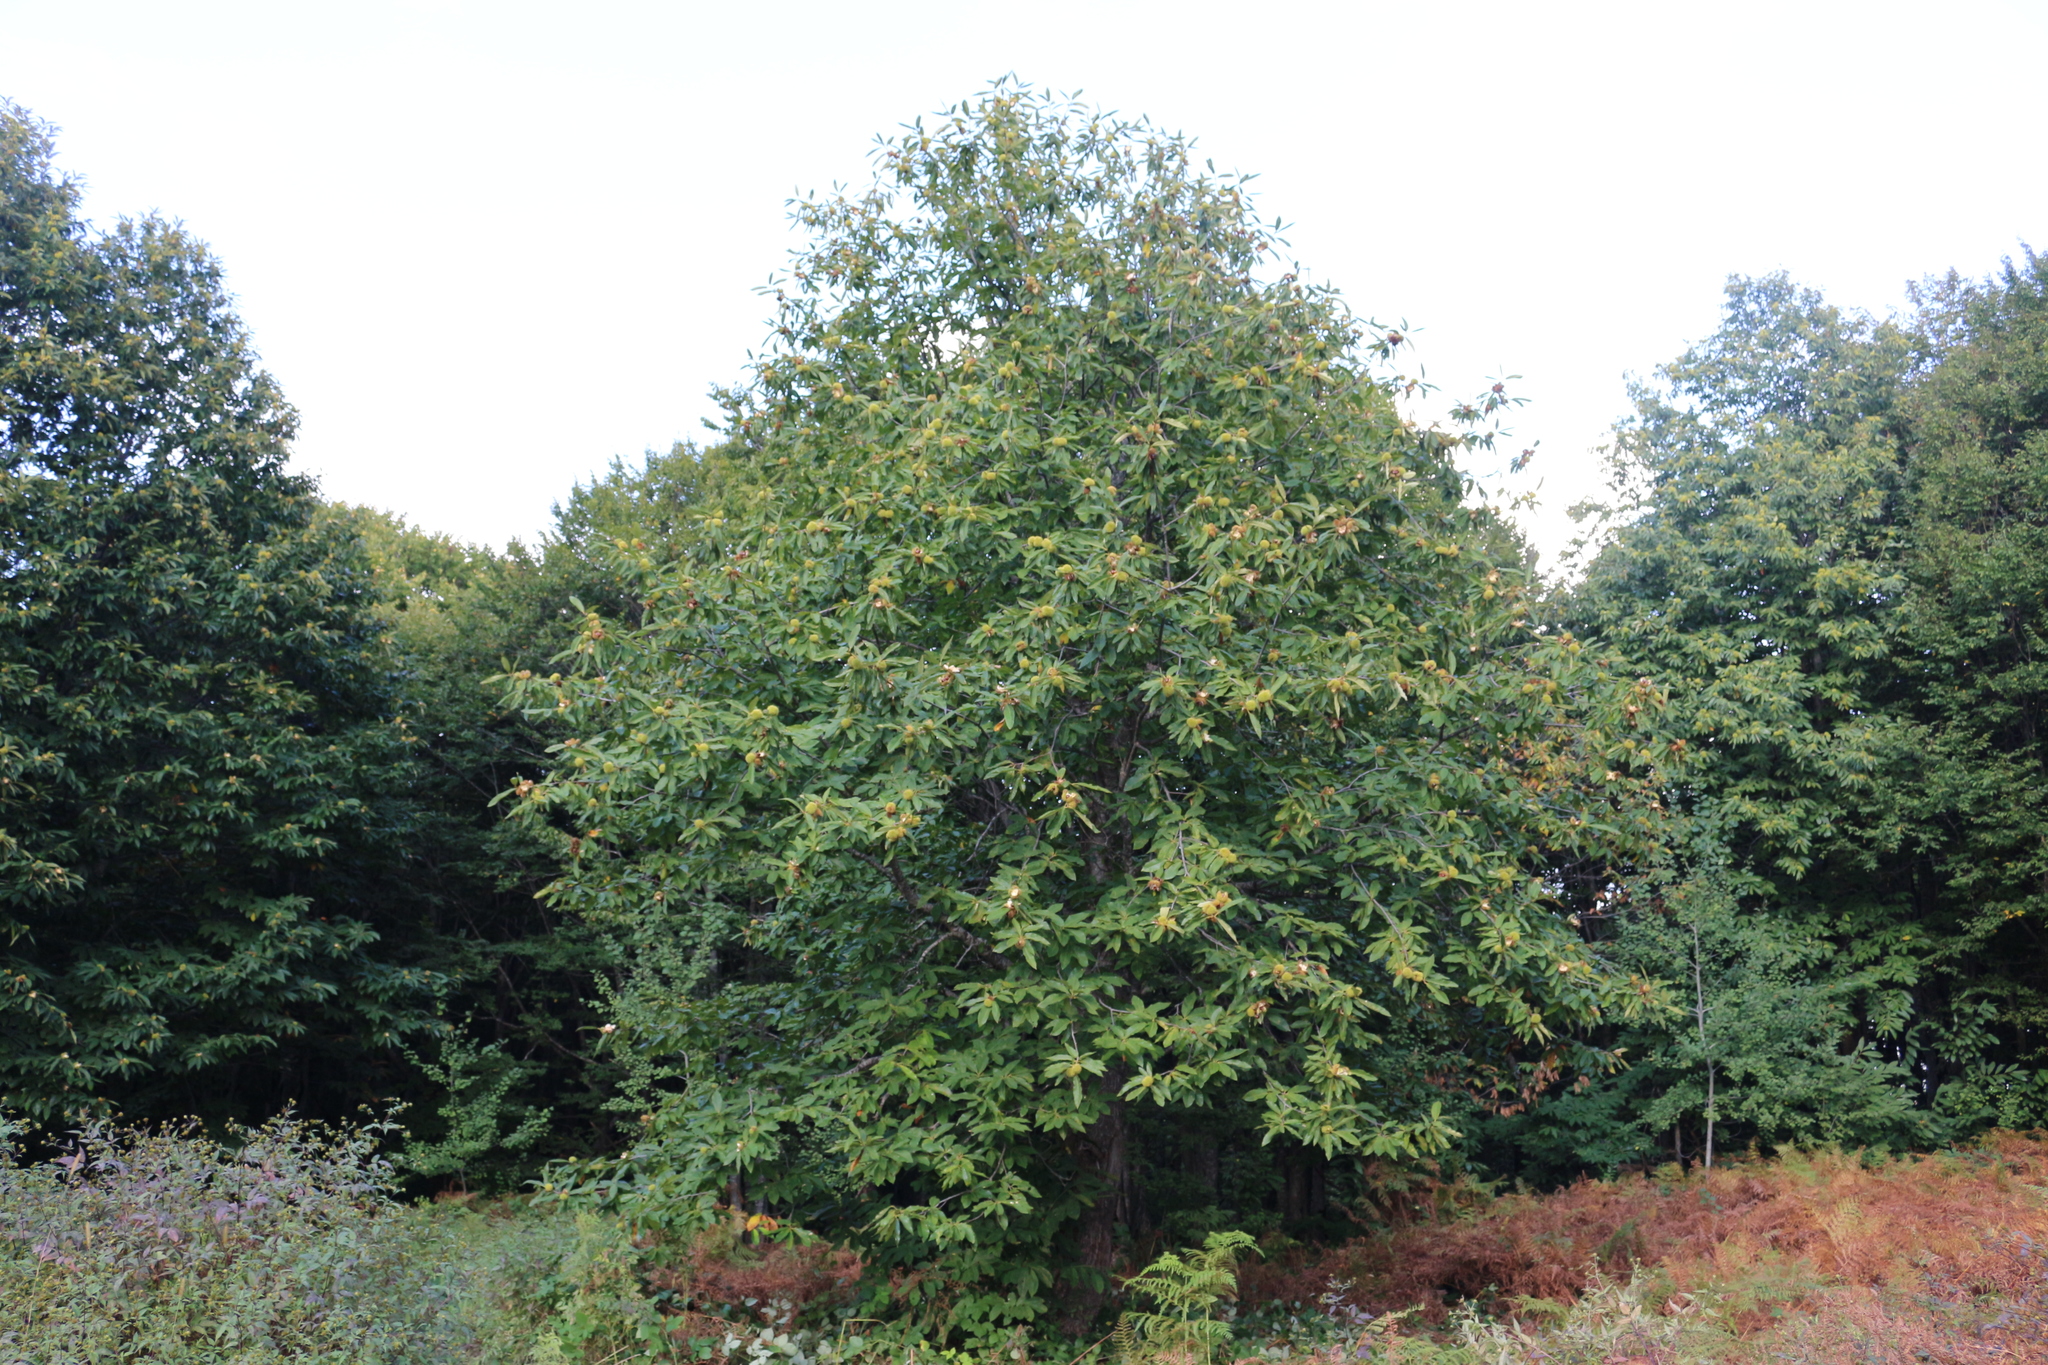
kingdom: Plantae
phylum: Tracheophyta
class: Magnoliopsida
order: Fagales
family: Fagaceae
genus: Castanea
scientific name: Castanea sativa
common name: Sweet chestnut
